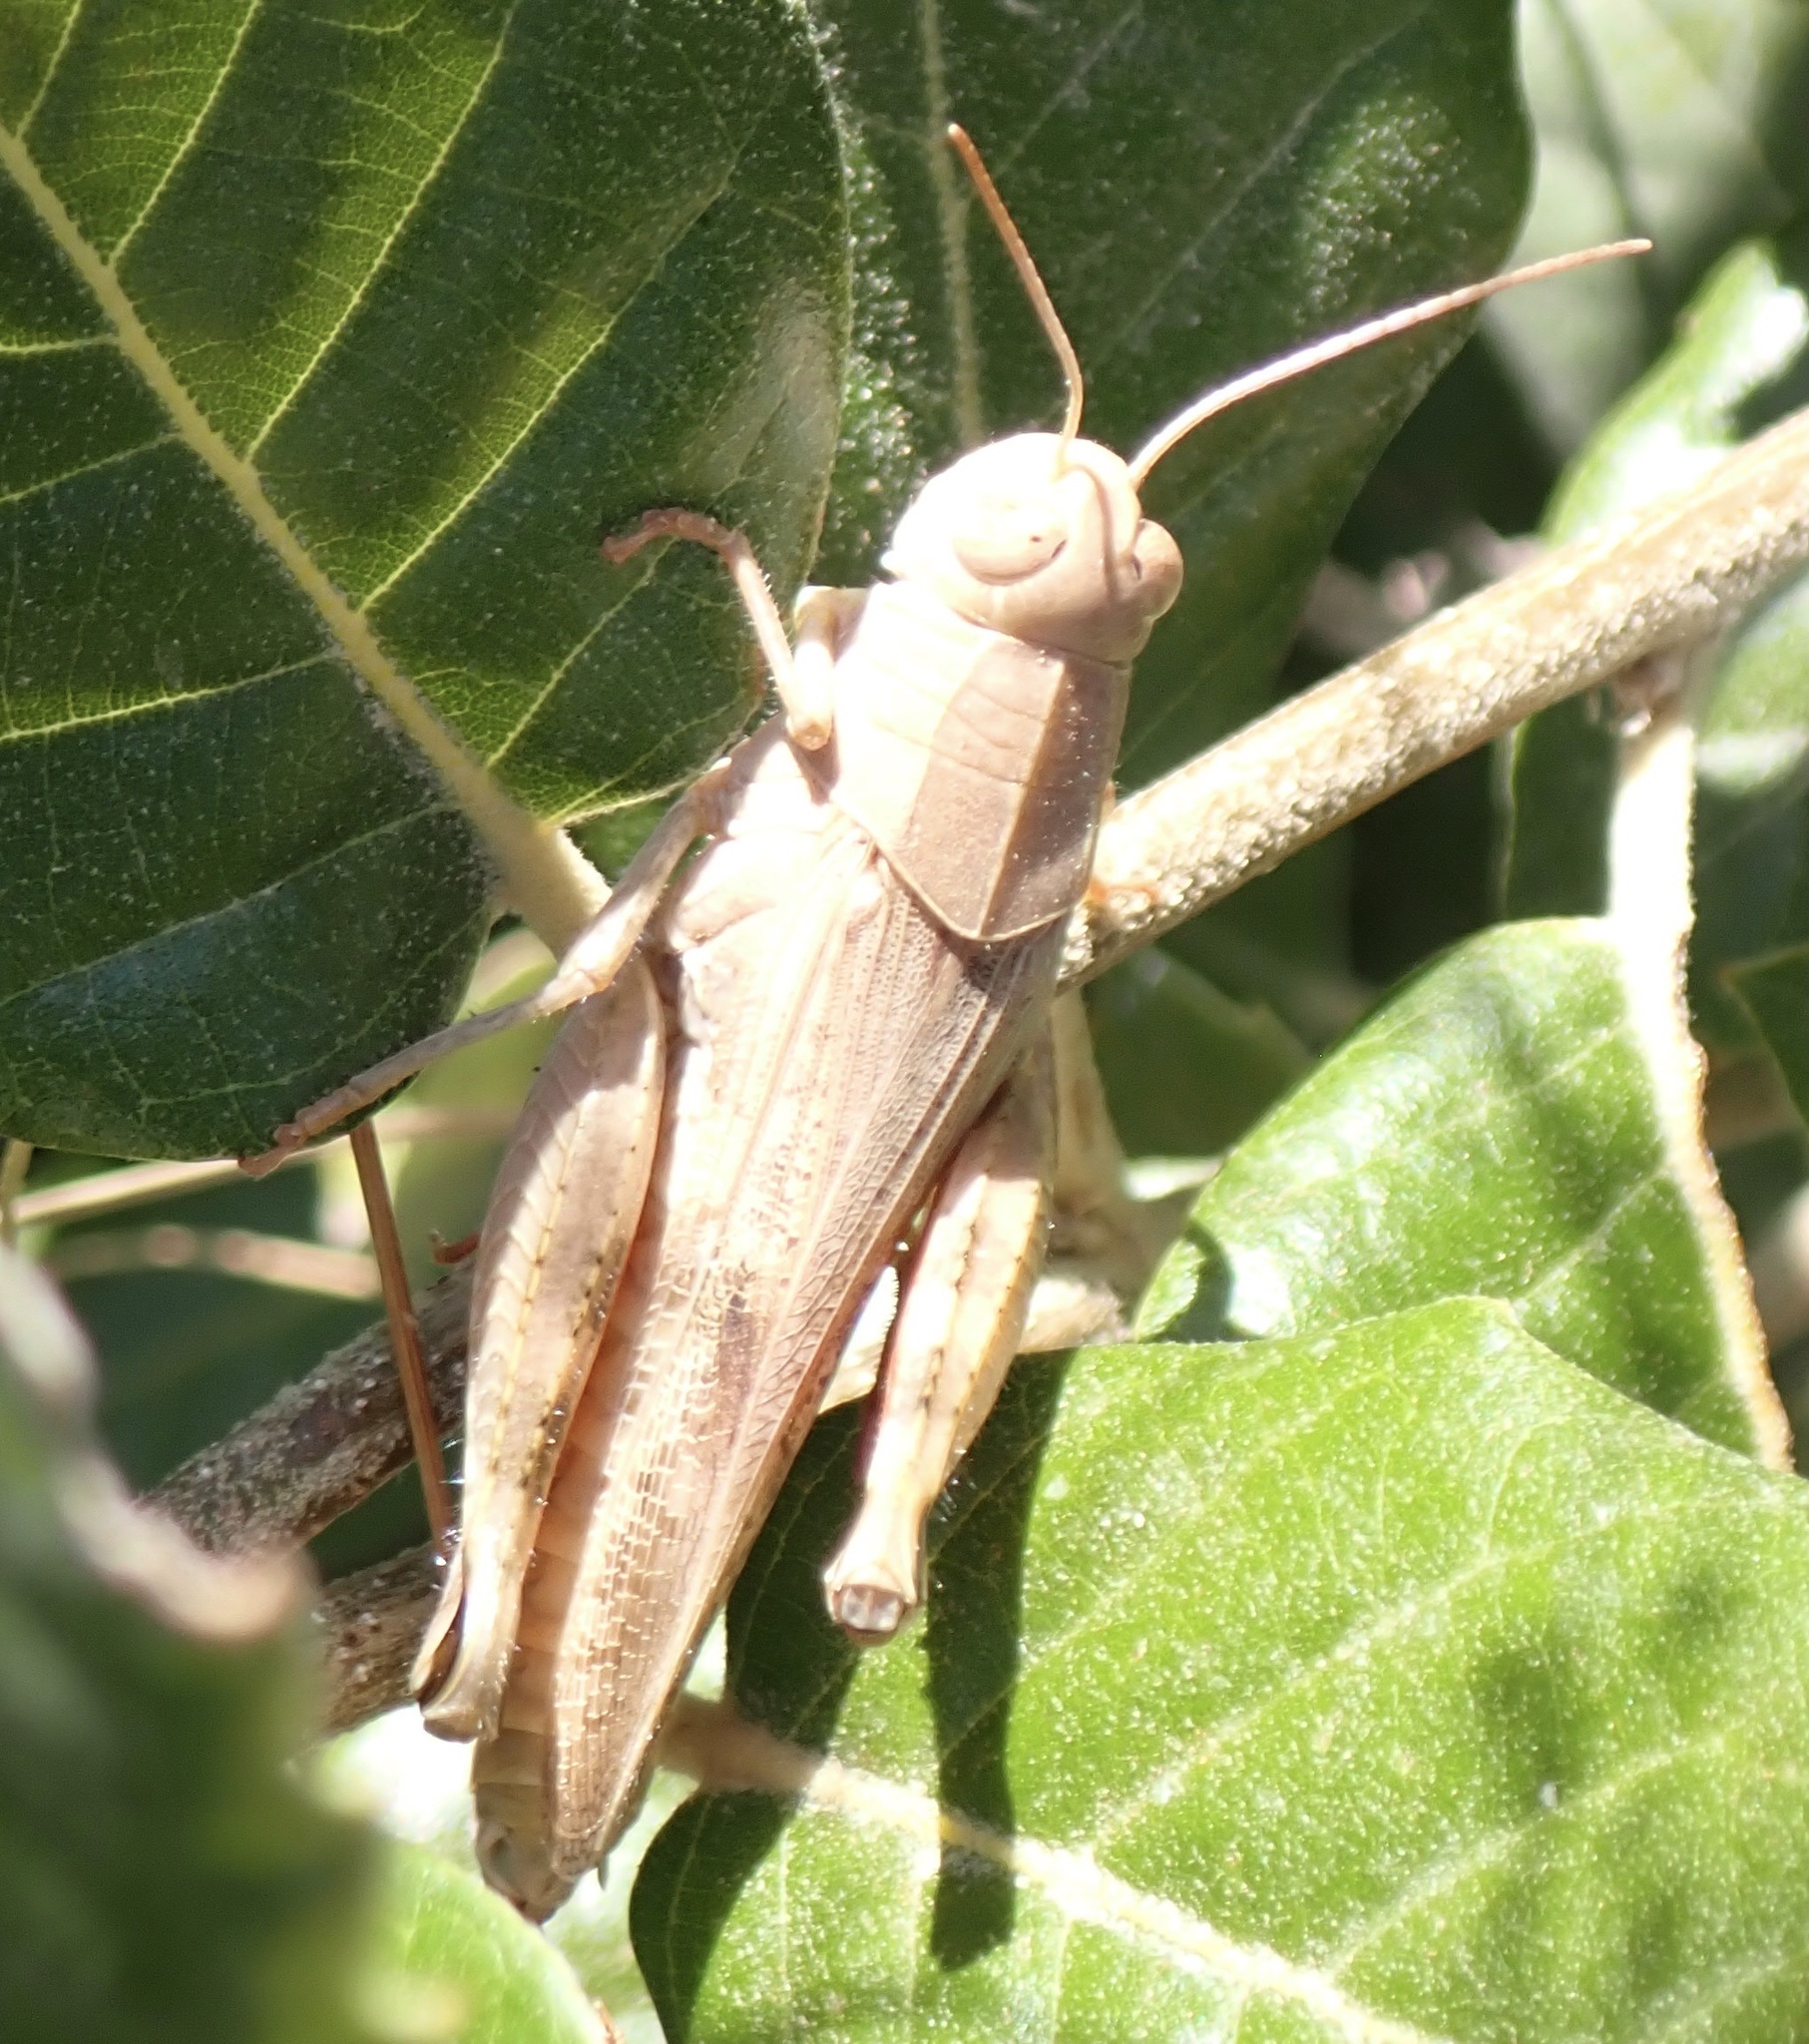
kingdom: Animalia
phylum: Arthropoda
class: Insecta
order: Orthoptera
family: Acrididae
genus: Calliptamus
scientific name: Calliptamus italicus
